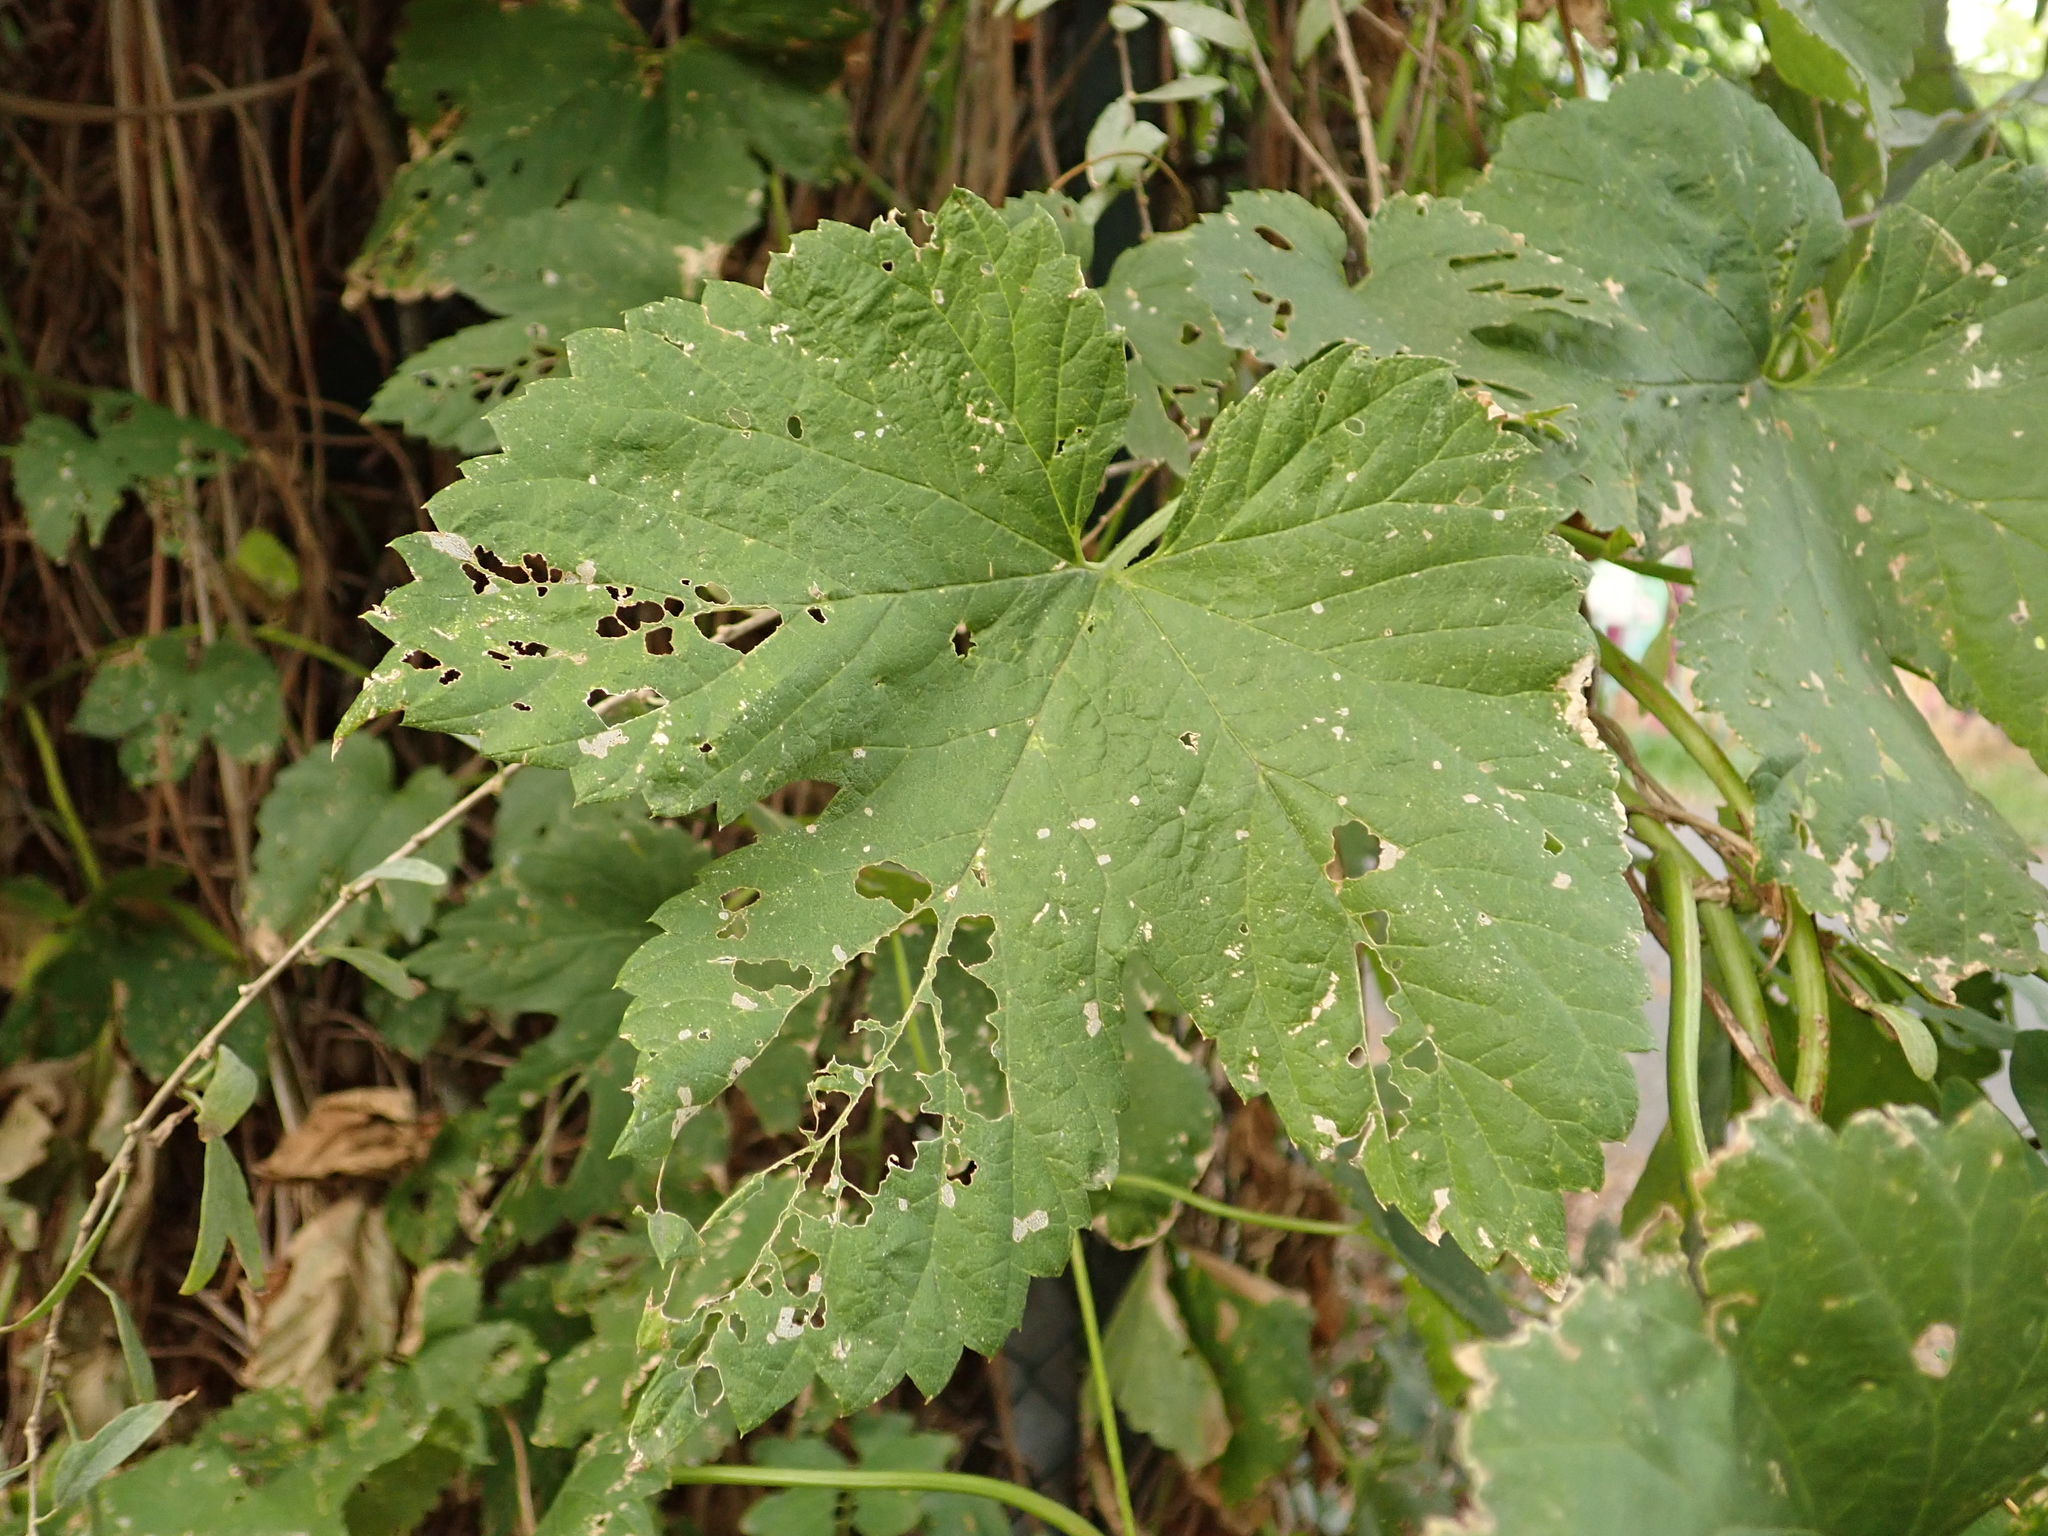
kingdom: Plantae
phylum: Tracheophyta
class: Magnoliopsida
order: Rosales
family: Cannabaceae
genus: Humulus
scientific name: Humulus lupulus
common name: Hop
